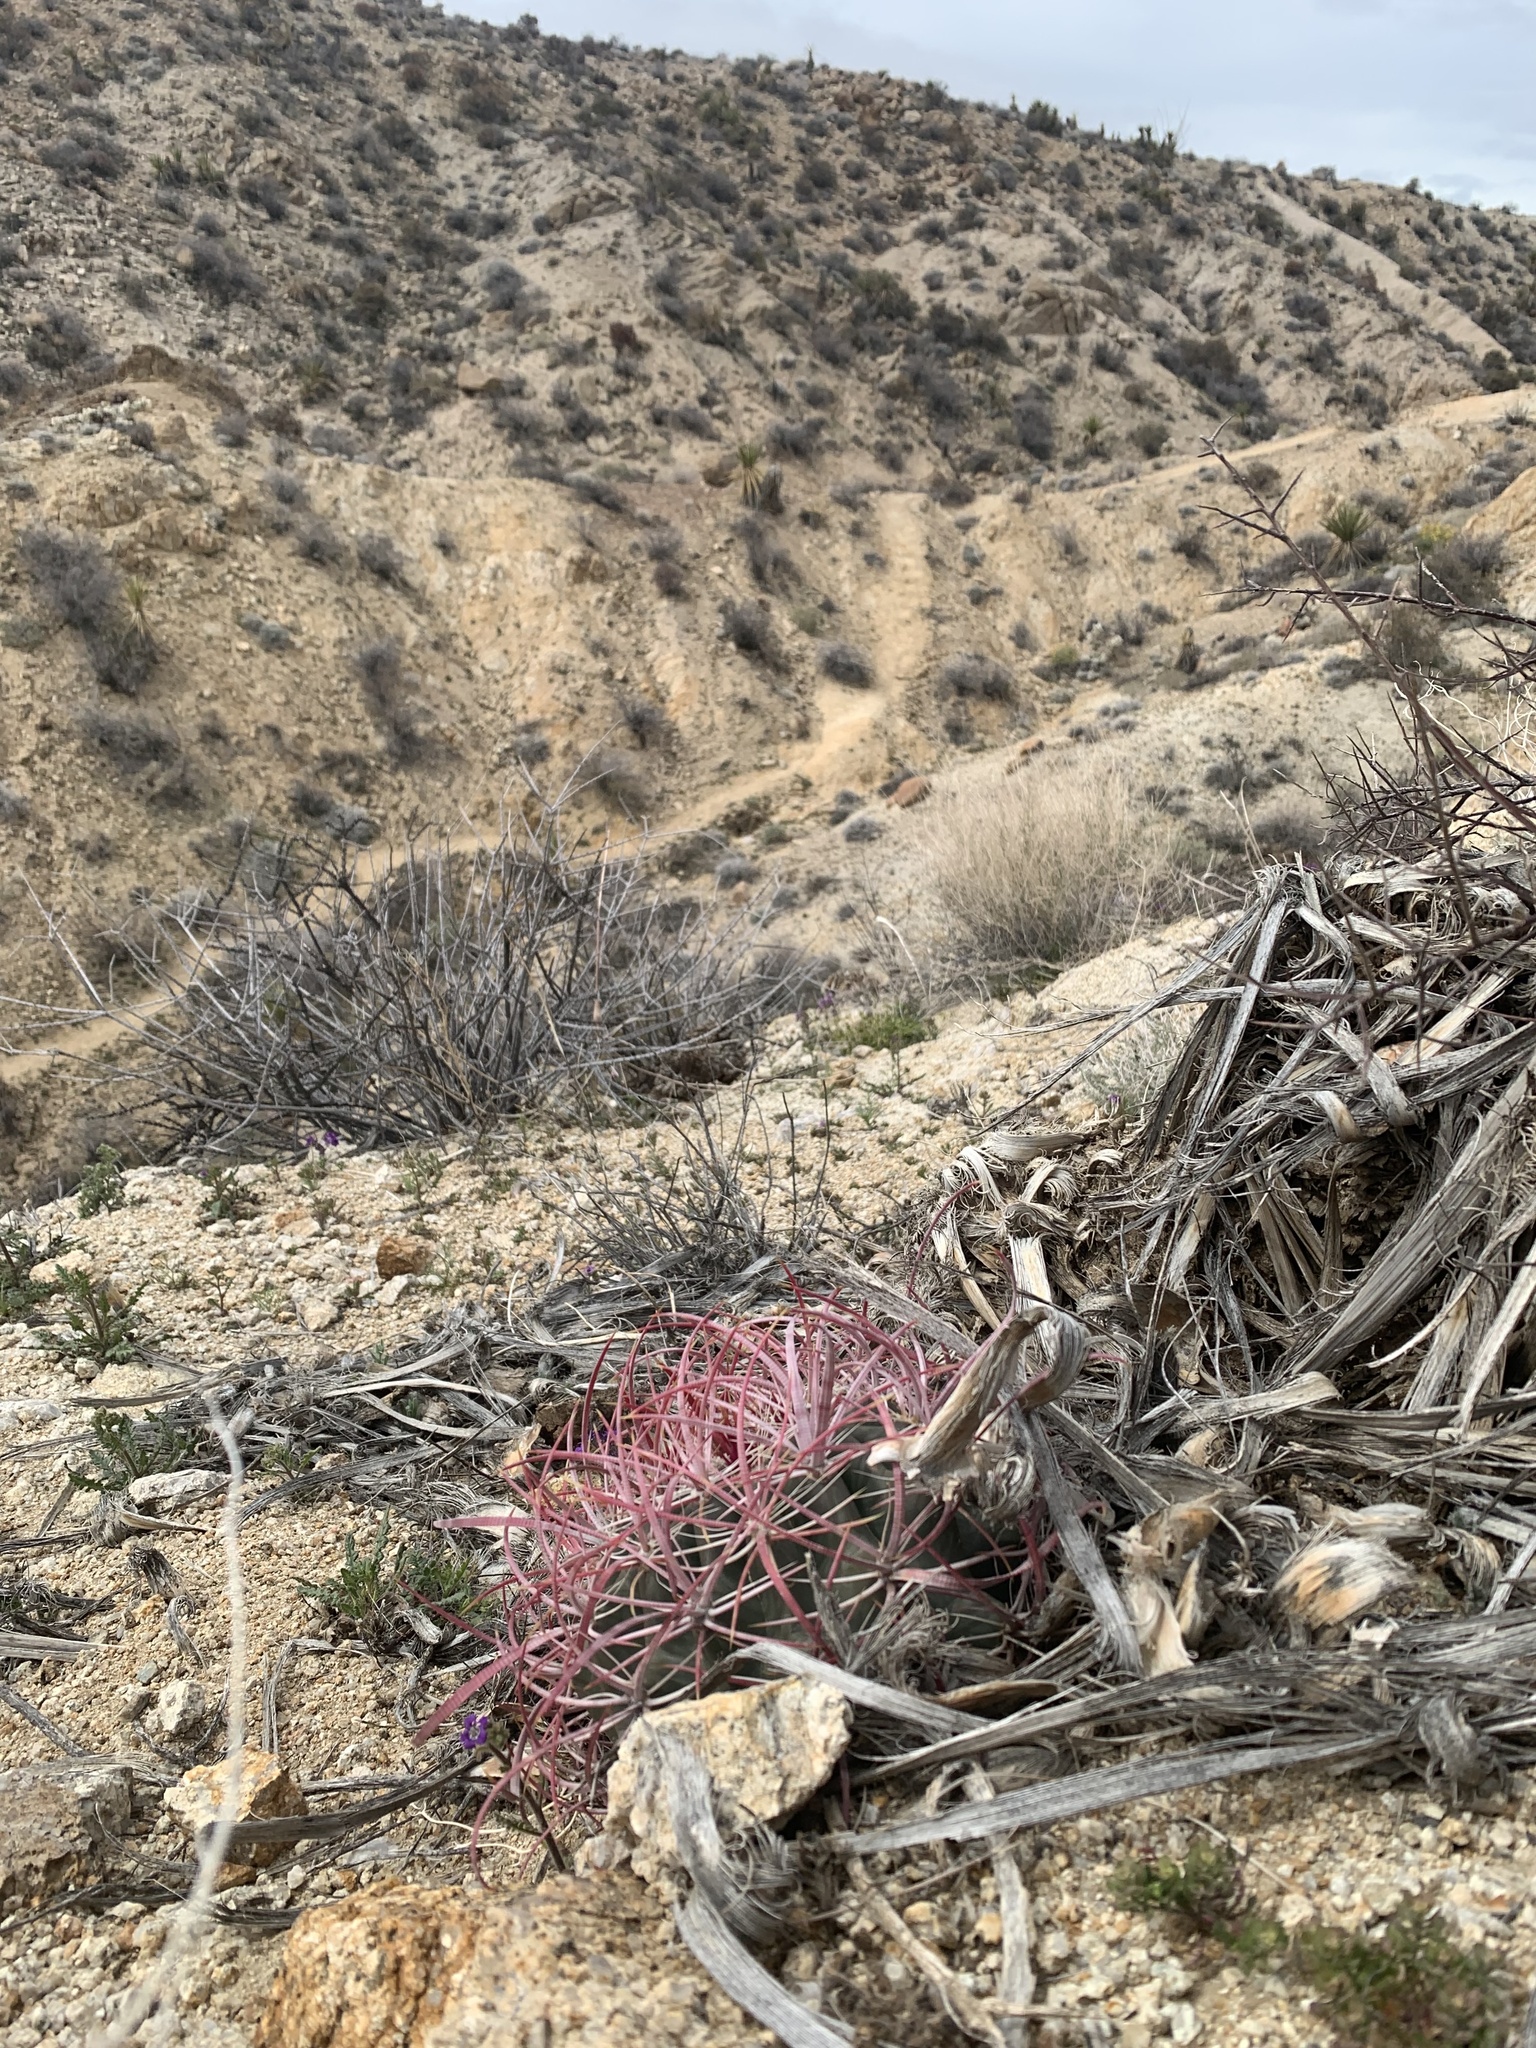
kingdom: Plantae
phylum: Tracheophyta
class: Magnoliopsida
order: Caryophyllales
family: Cactaceae
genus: Ferocactus
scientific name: Ferocactus cylindraceus
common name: California barrel cactus
